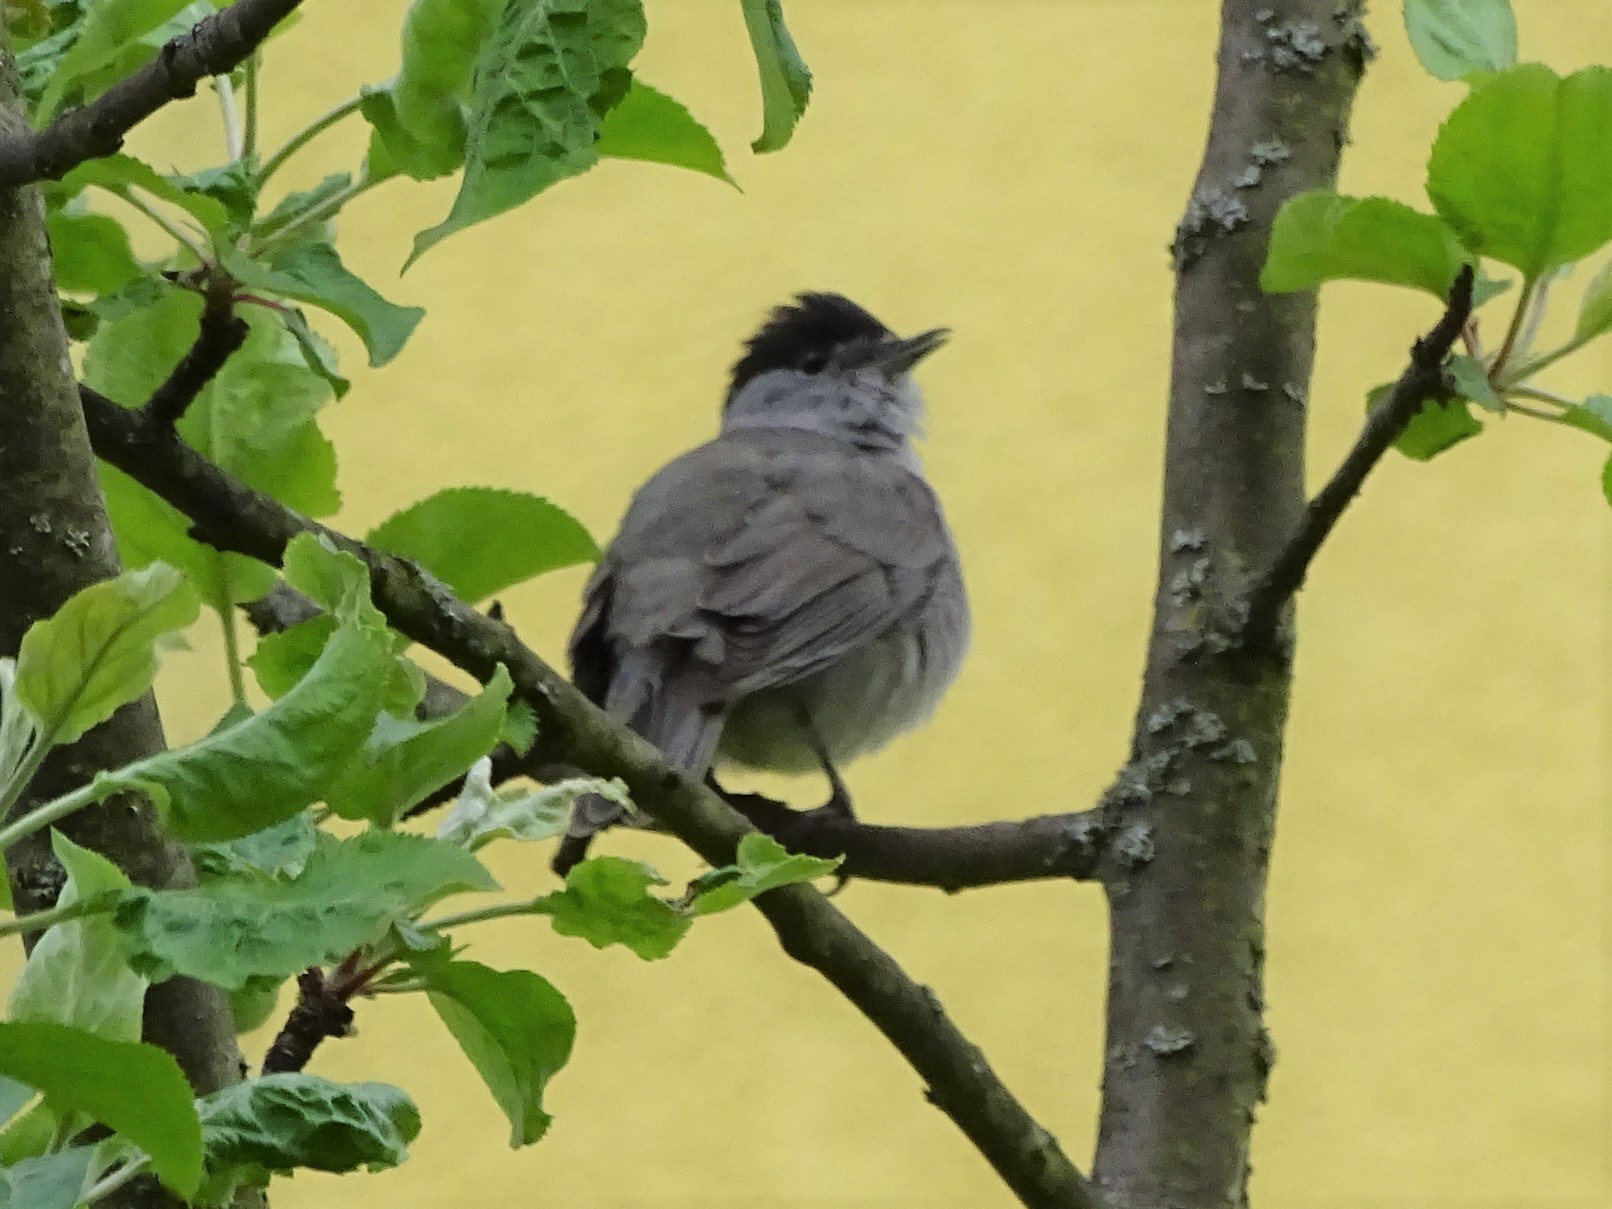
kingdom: Animalia
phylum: Chordata
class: Aves
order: Passeriformes
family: Sylviidae
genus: Sylvia
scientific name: Sylvia atricapilla
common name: Eurasian blackcap
